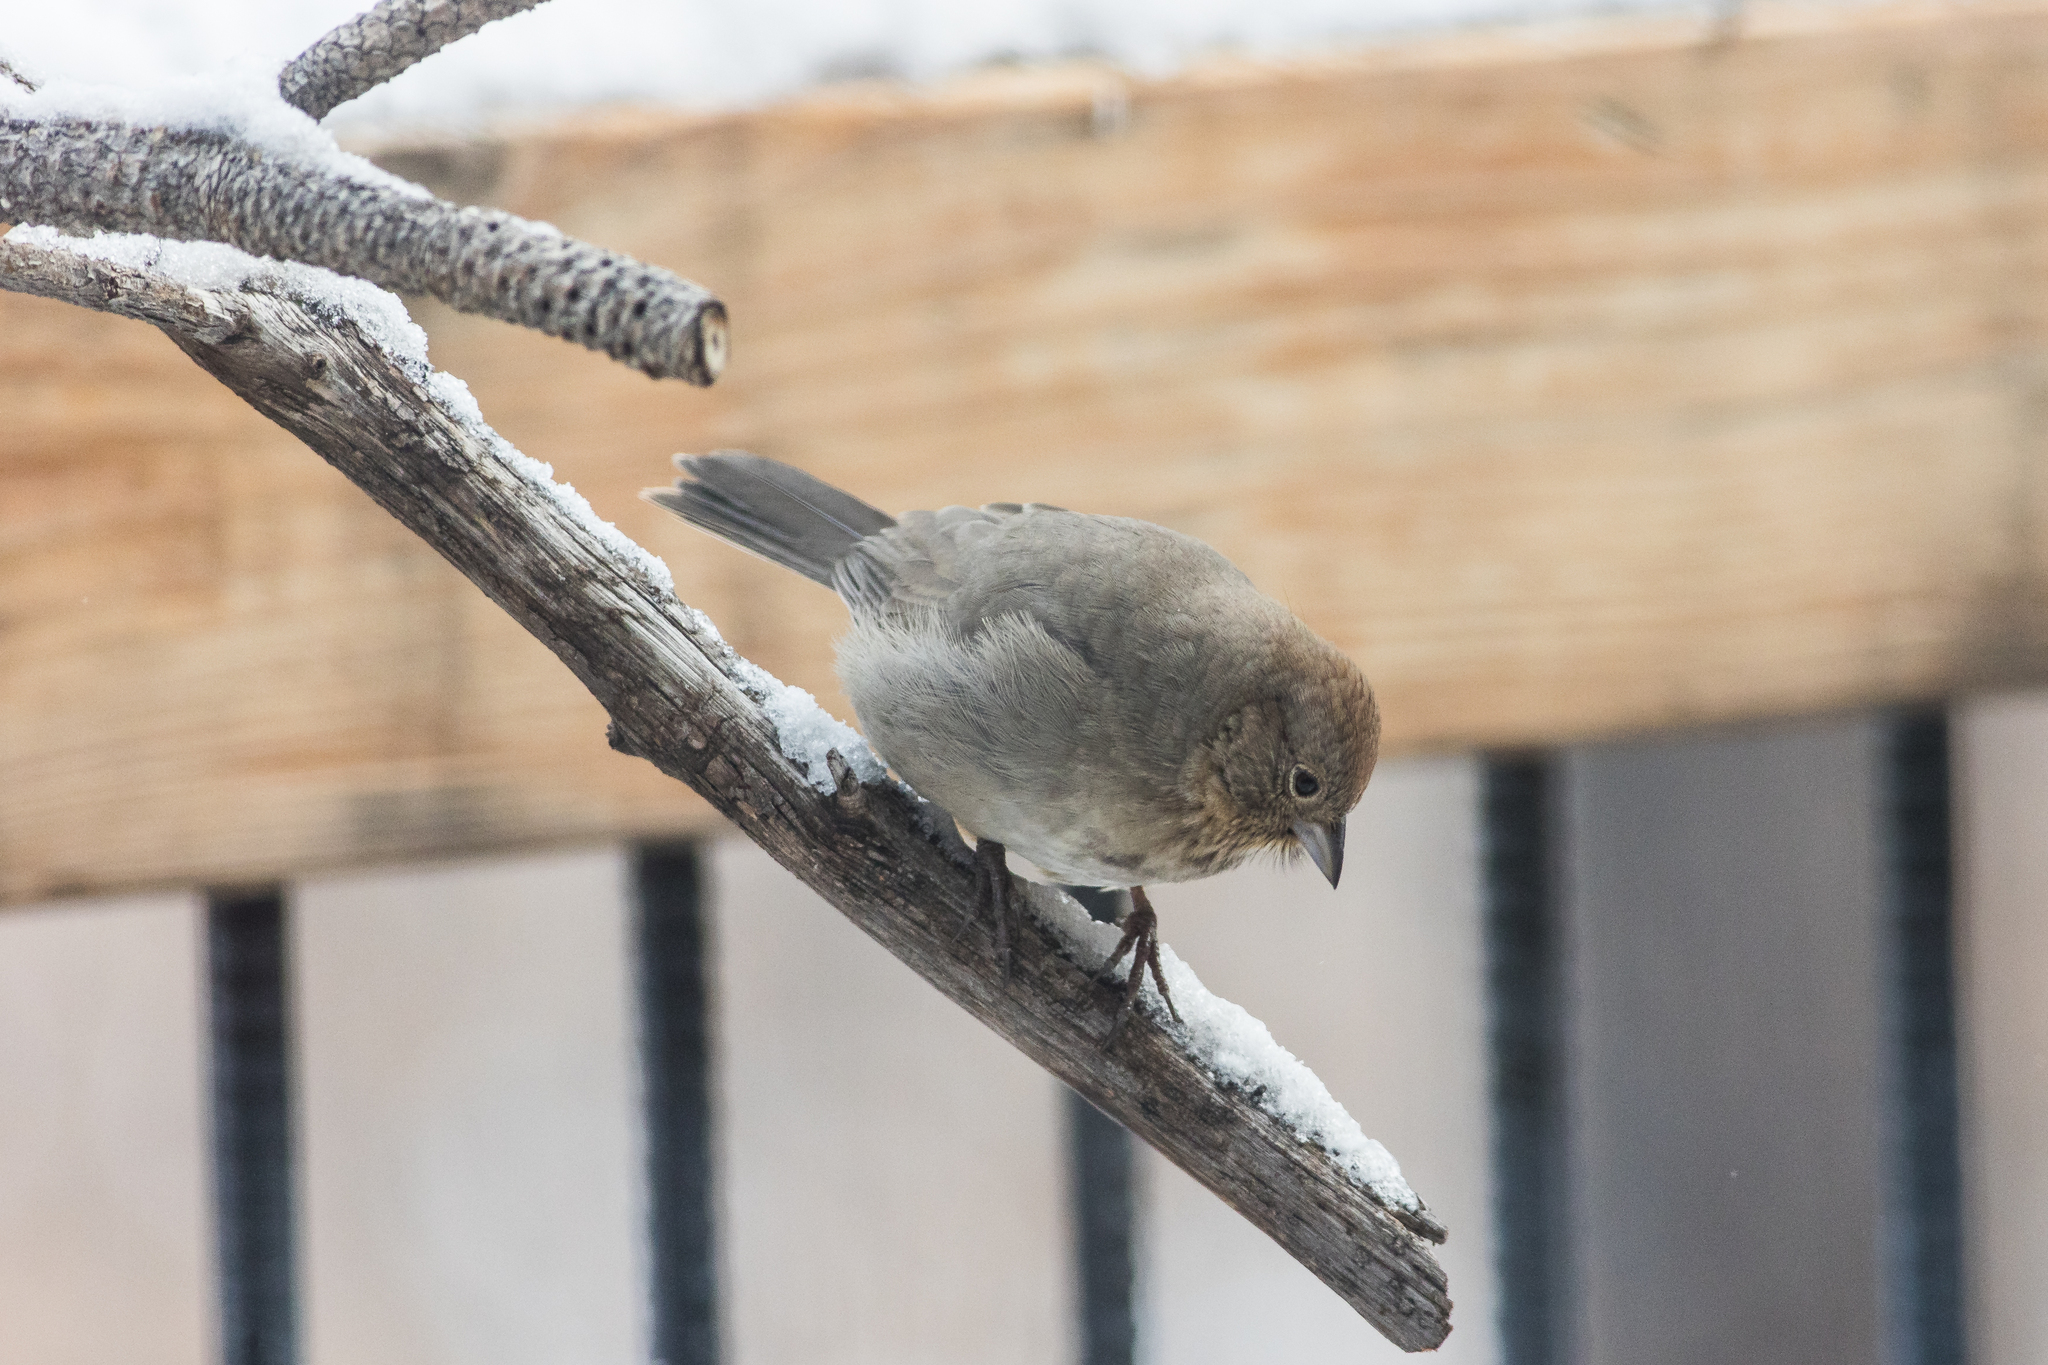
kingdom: Animalia
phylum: Chordata
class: Aves
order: Passeriformes
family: Passerellidae
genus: Melozone
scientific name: Melozone fusca
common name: Canyon towhee
